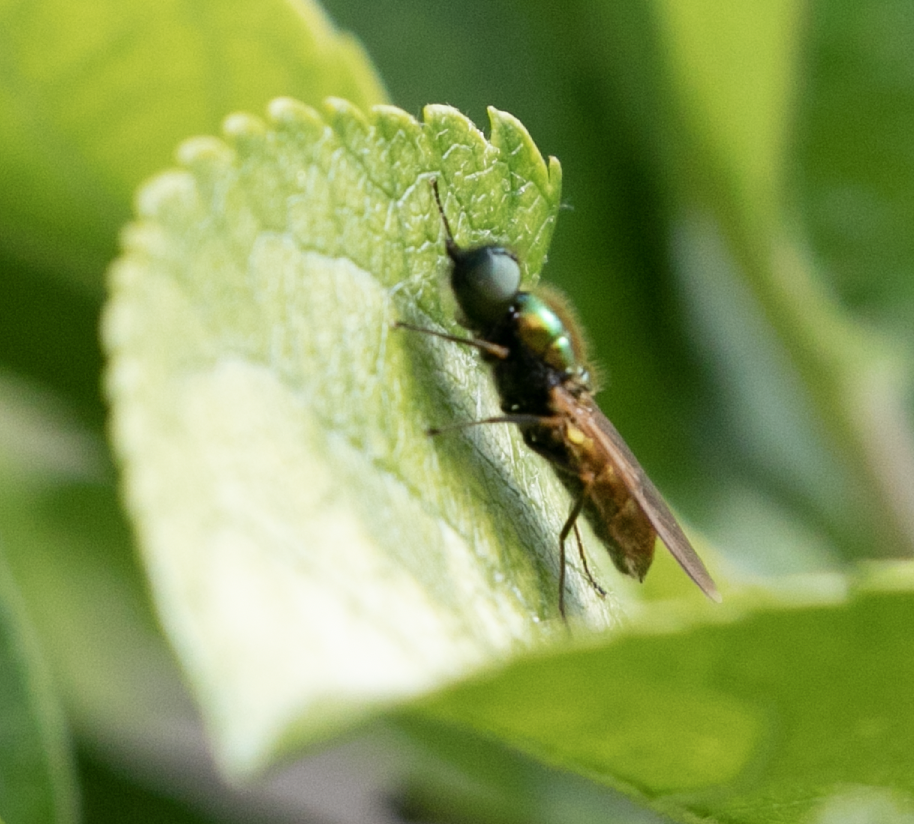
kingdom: Animalia
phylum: Arthropoda
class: Insecta
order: Diptera
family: Stratiomyidae
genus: Chloromyia
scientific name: Chloromyia formosa
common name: Soldier fly
